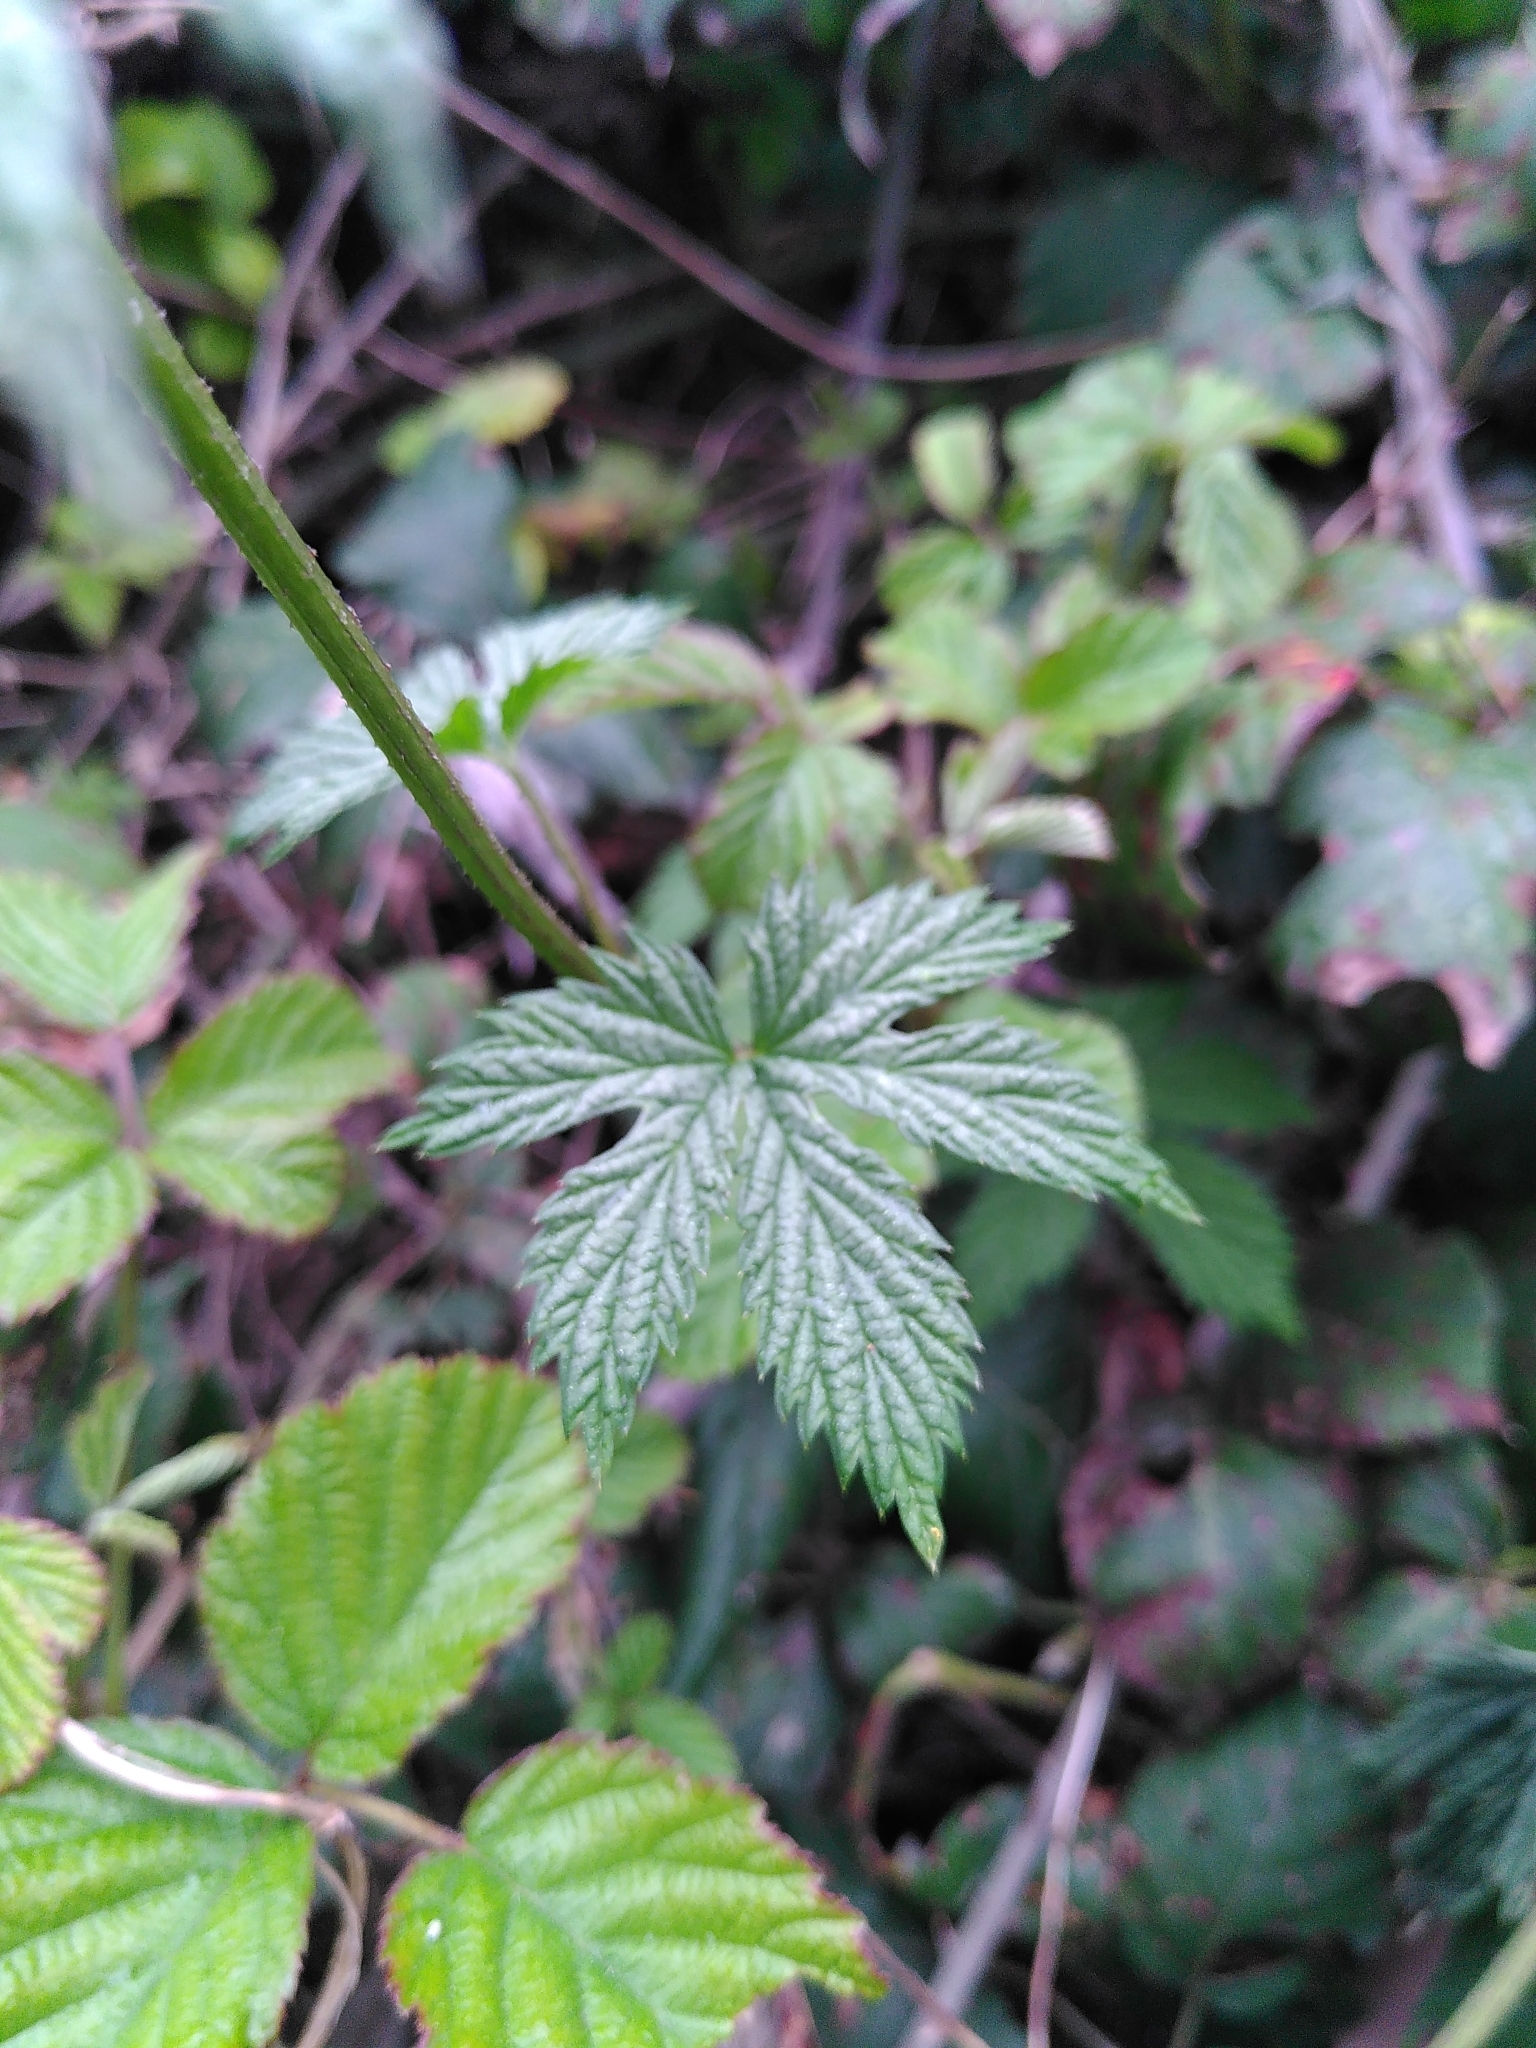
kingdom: Plantae
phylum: Tracheophyta
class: Magnoliopsida
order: Rosales
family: Cannabaceae
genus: Humulus
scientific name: Humulus lupulus
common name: Hop
